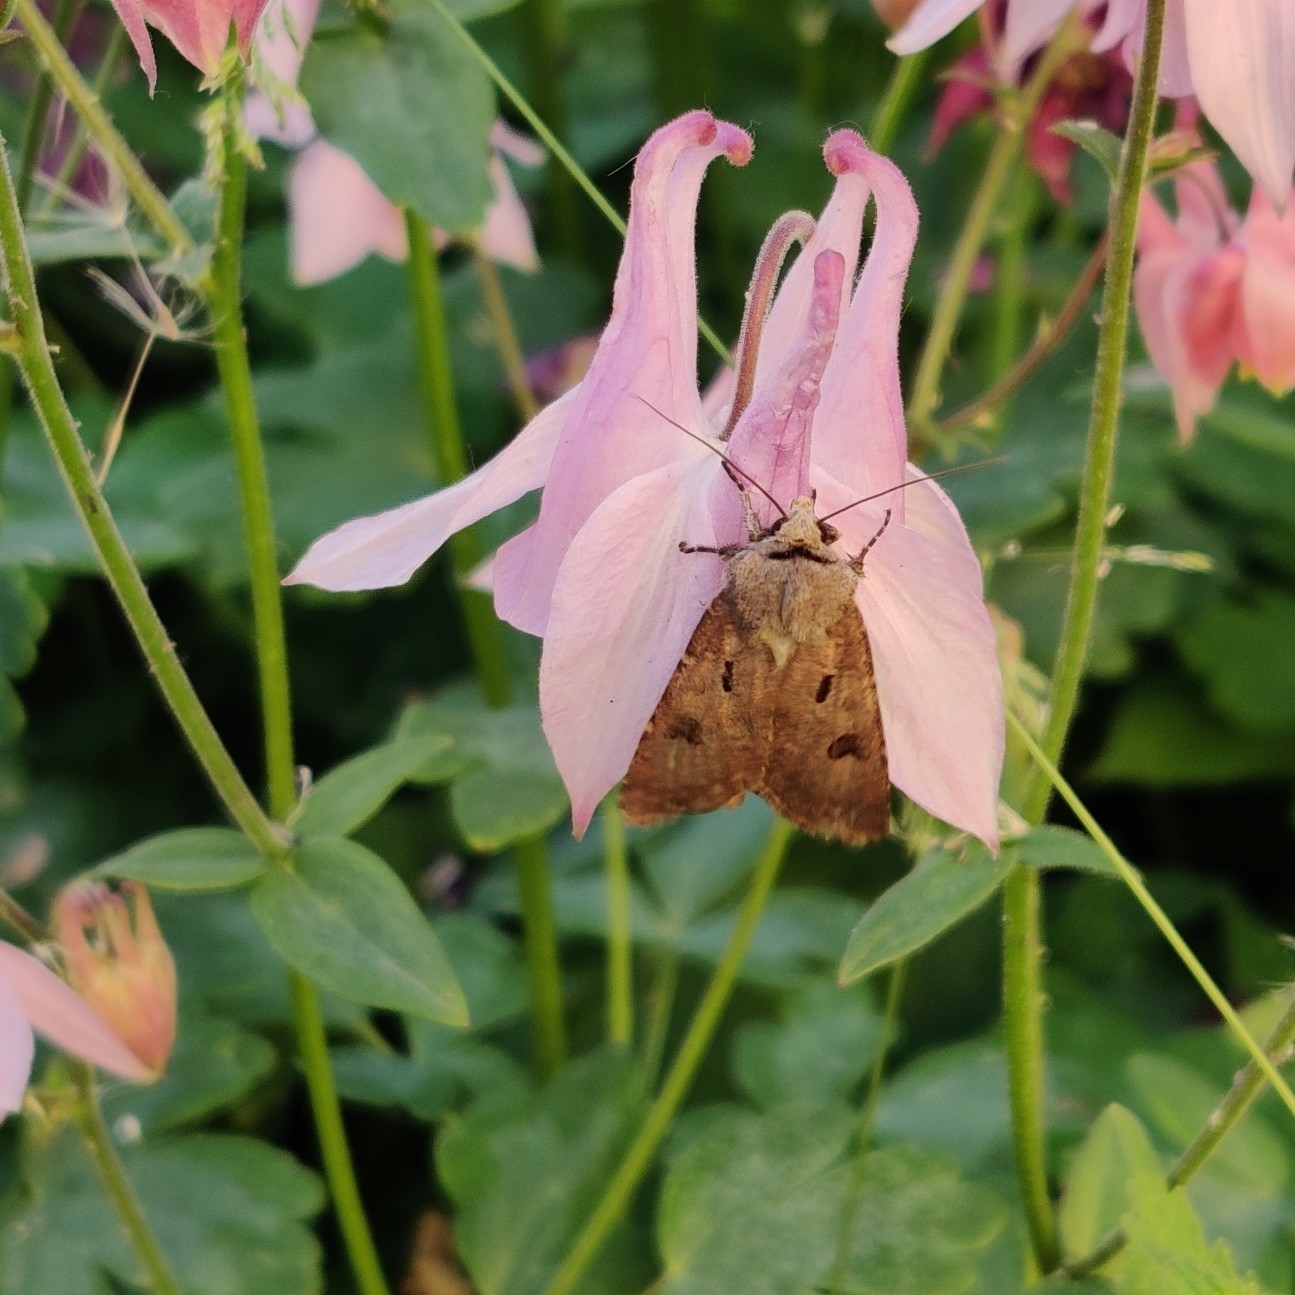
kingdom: Animalia
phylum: Arthropoda
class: Insecta
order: Lepidoptera
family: Noctuidae
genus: Agrotis
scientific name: Agrotis exclamationis
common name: Heart and dart
